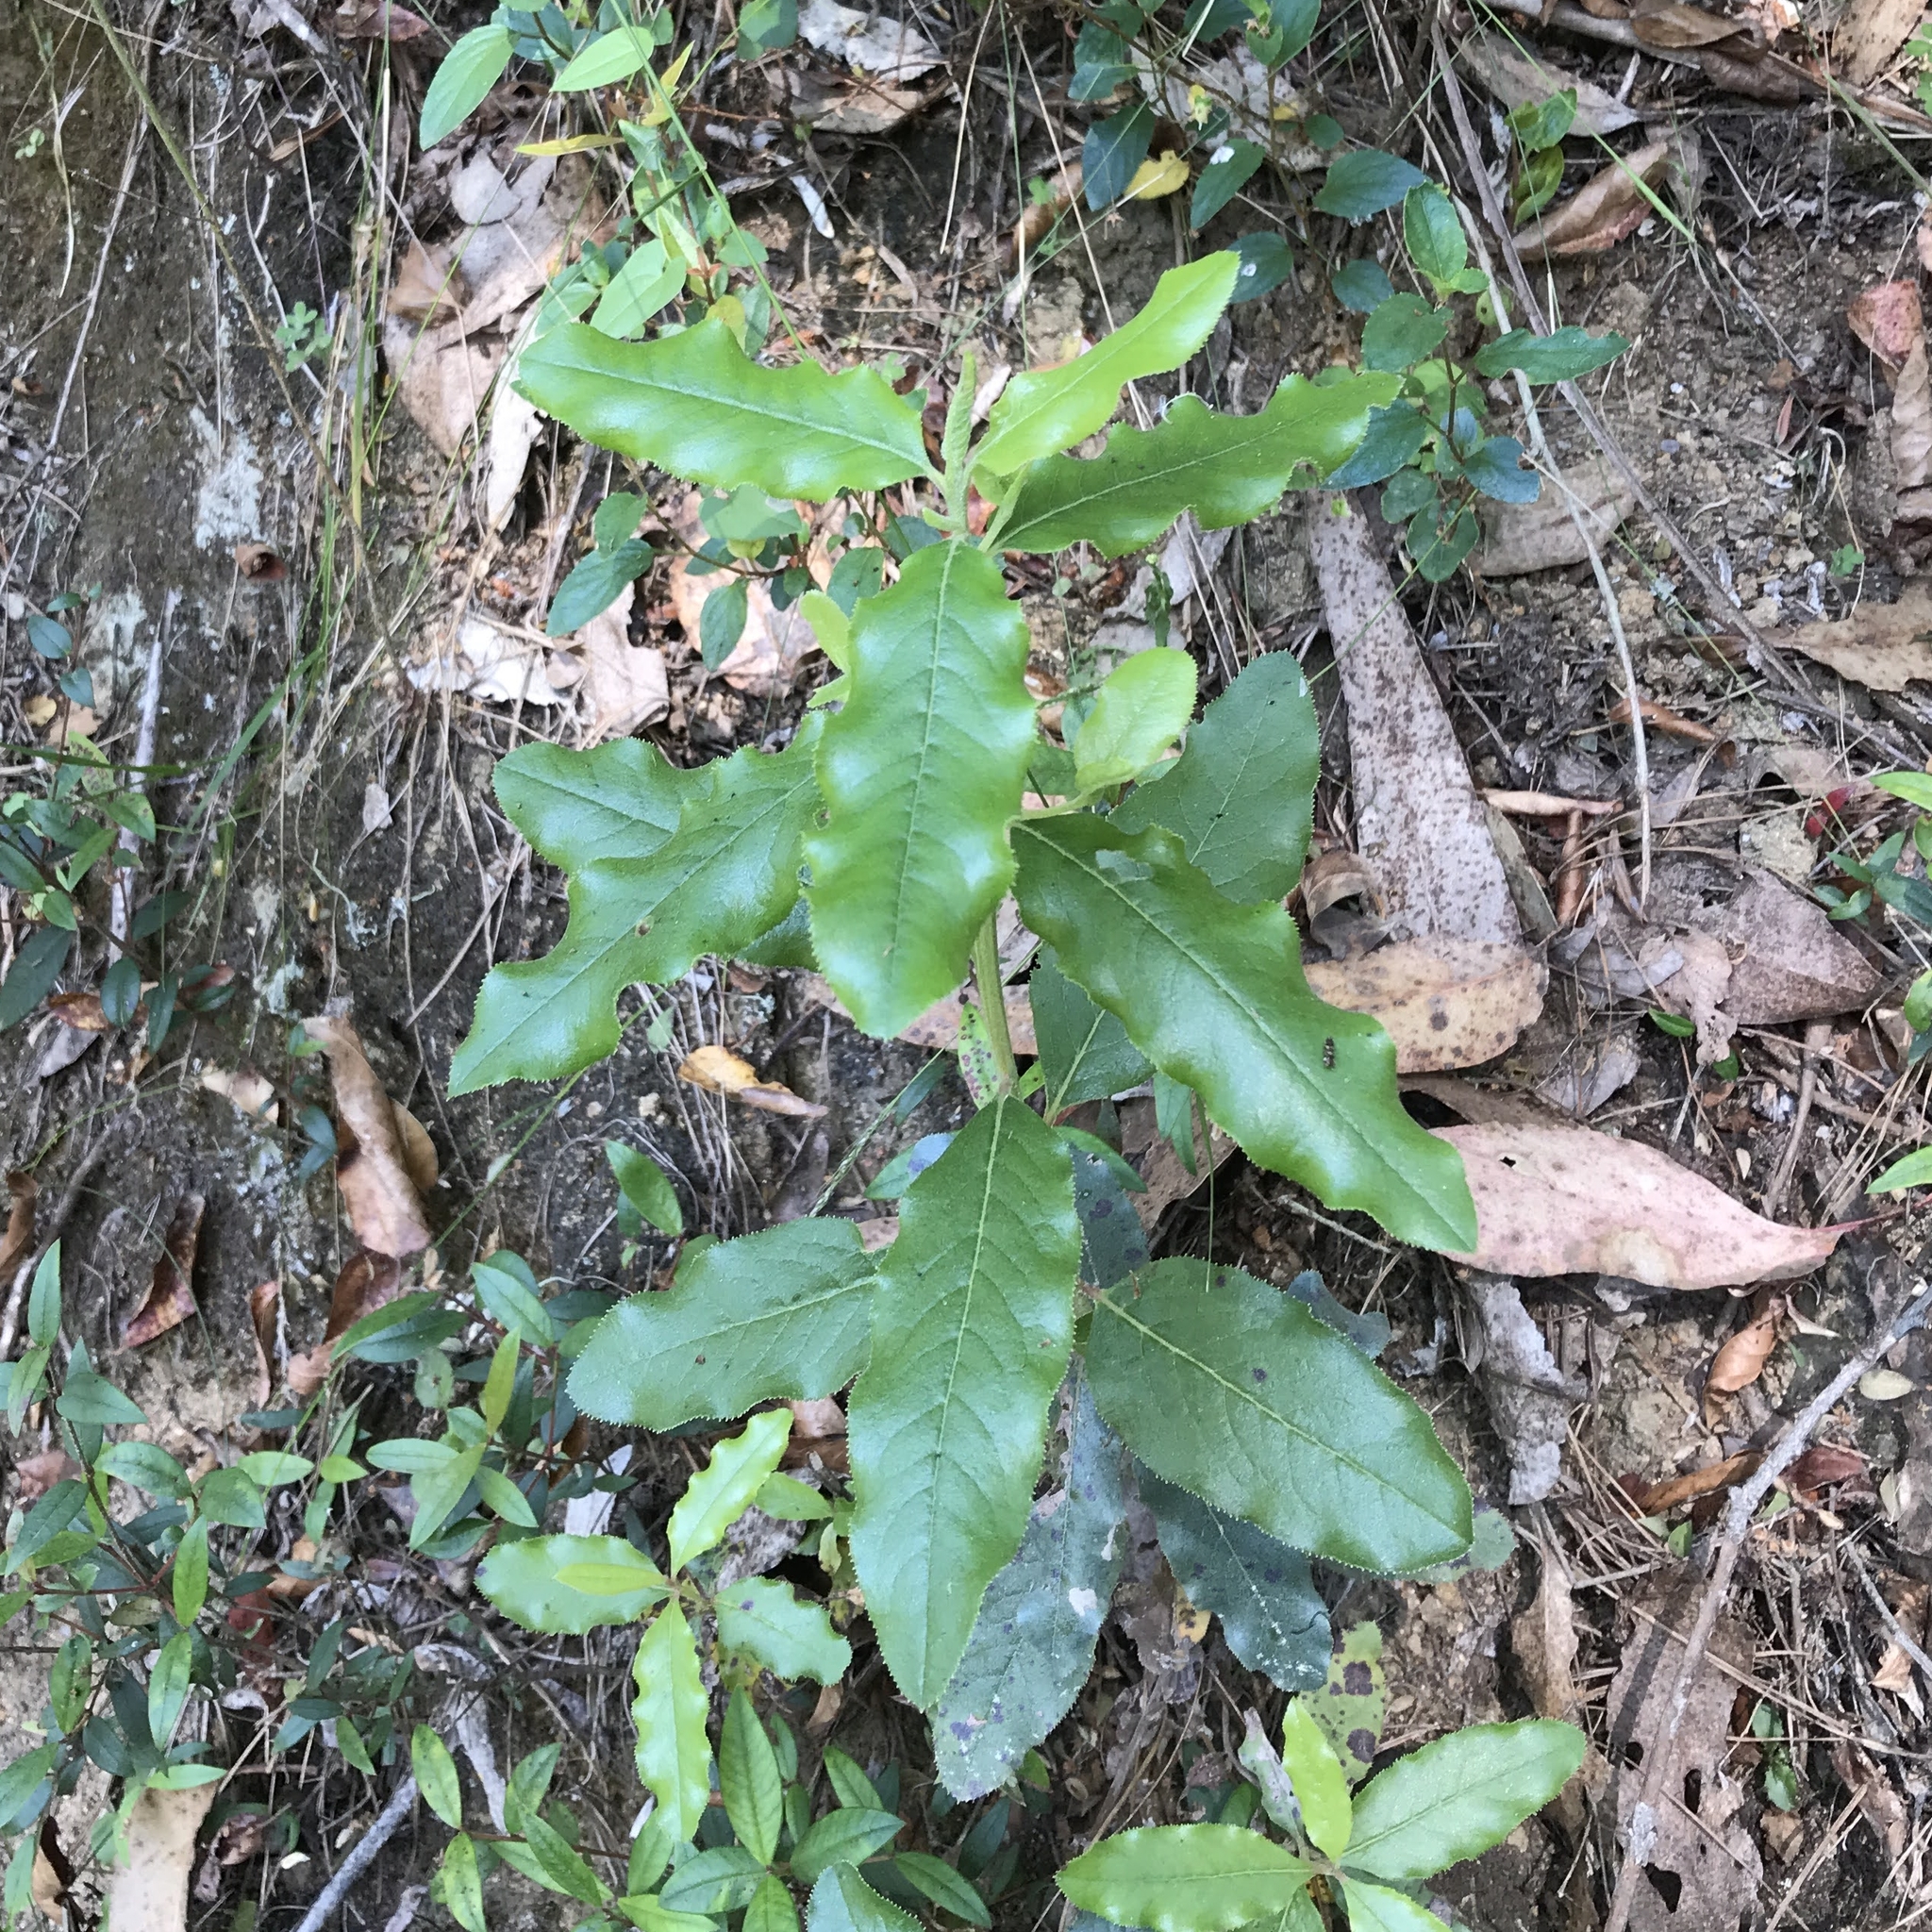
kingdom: Plantae
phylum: Tracheophyta
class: Magnoliopsida
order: Escalloniales
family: Escalloniaceae
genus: Escallonia
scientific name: Escallonia pulverulenta
